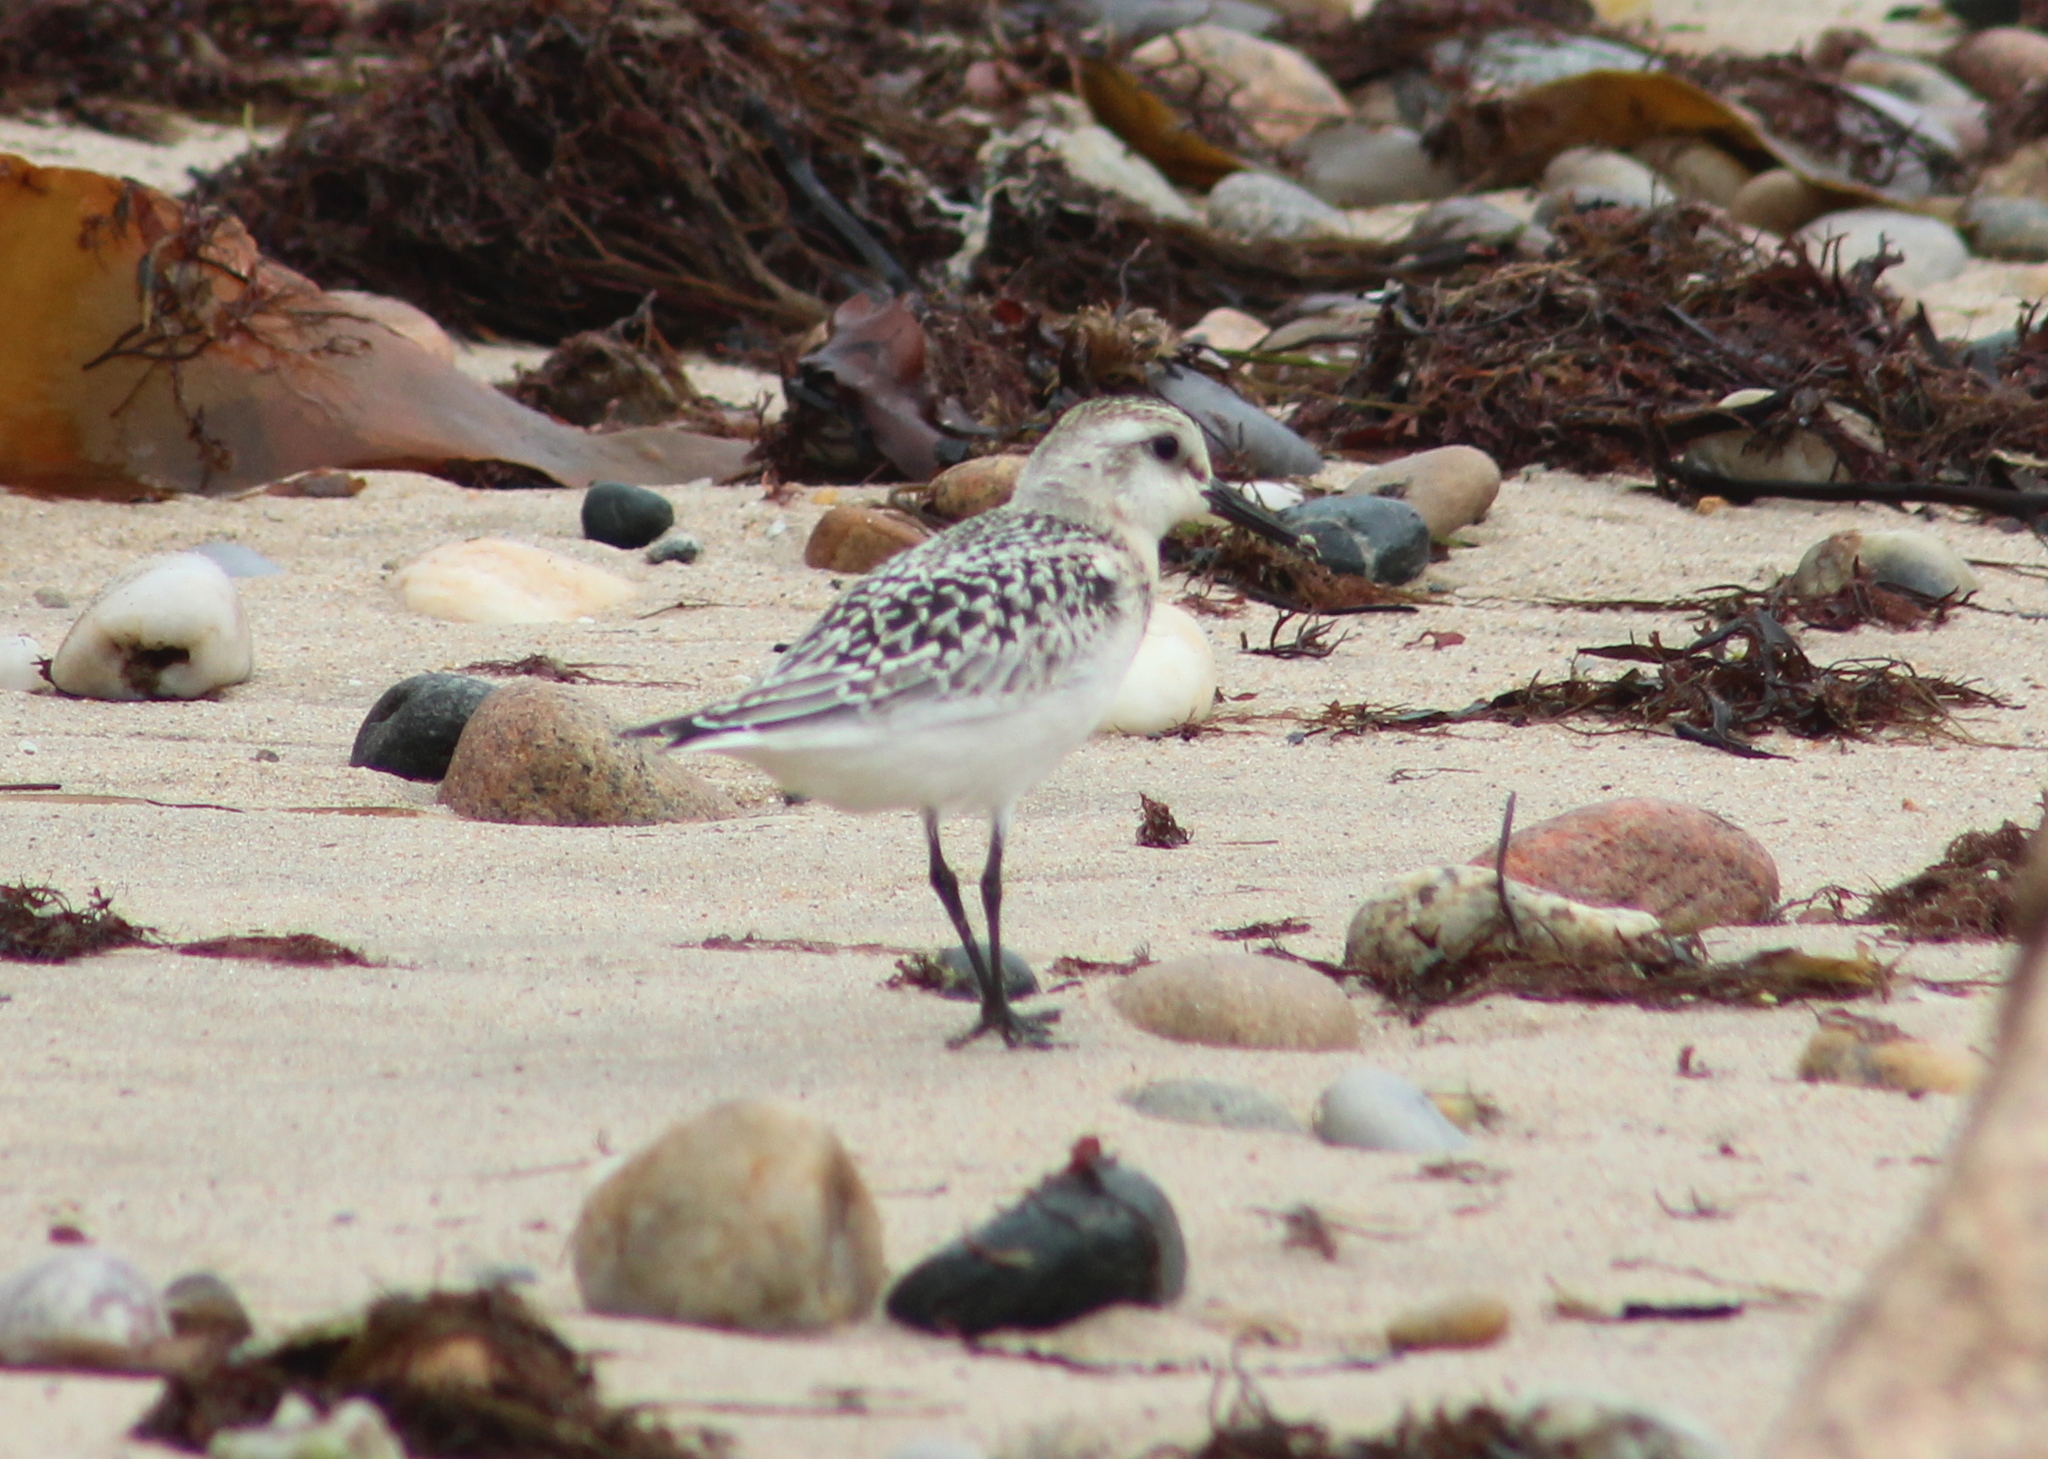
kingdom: Animalia
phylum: Chordata
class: Aves
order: Charadriiformes
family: Scolopacidae
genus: Calidris
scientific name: Calidris alba
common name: Sanderling
